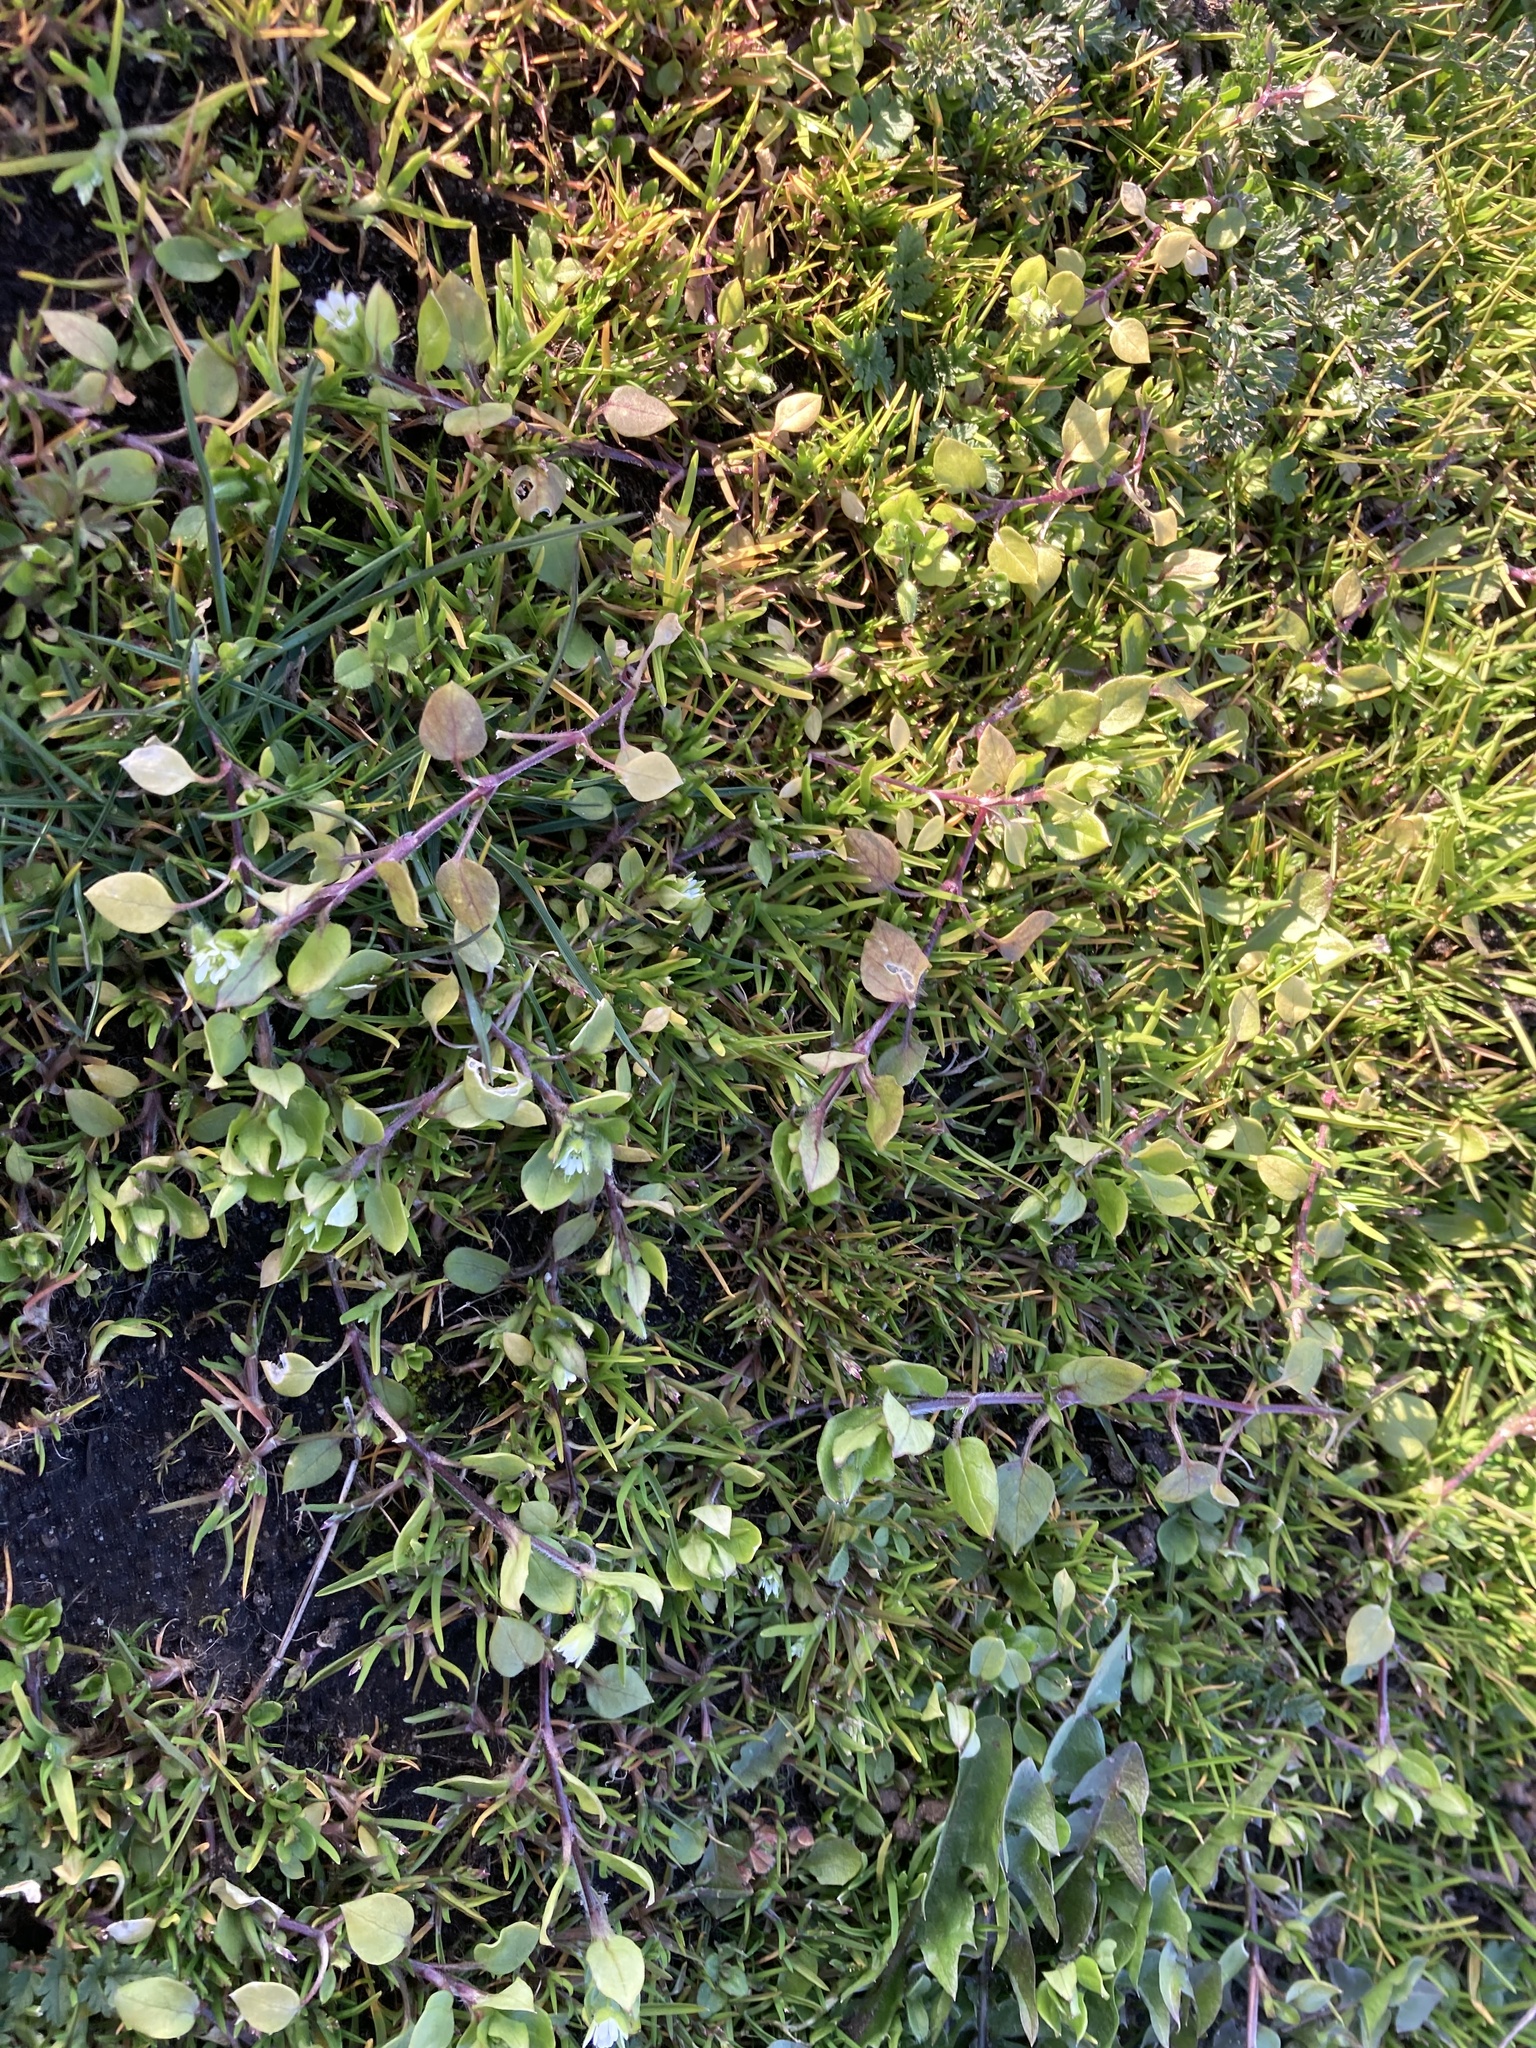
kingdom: Plantae
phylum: Tracheophyta
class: Magnoliopsida
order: Caryophyllales
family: Caryophyllaceae
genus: Stellaria
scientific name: Stellaria media
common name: Common chickweed
